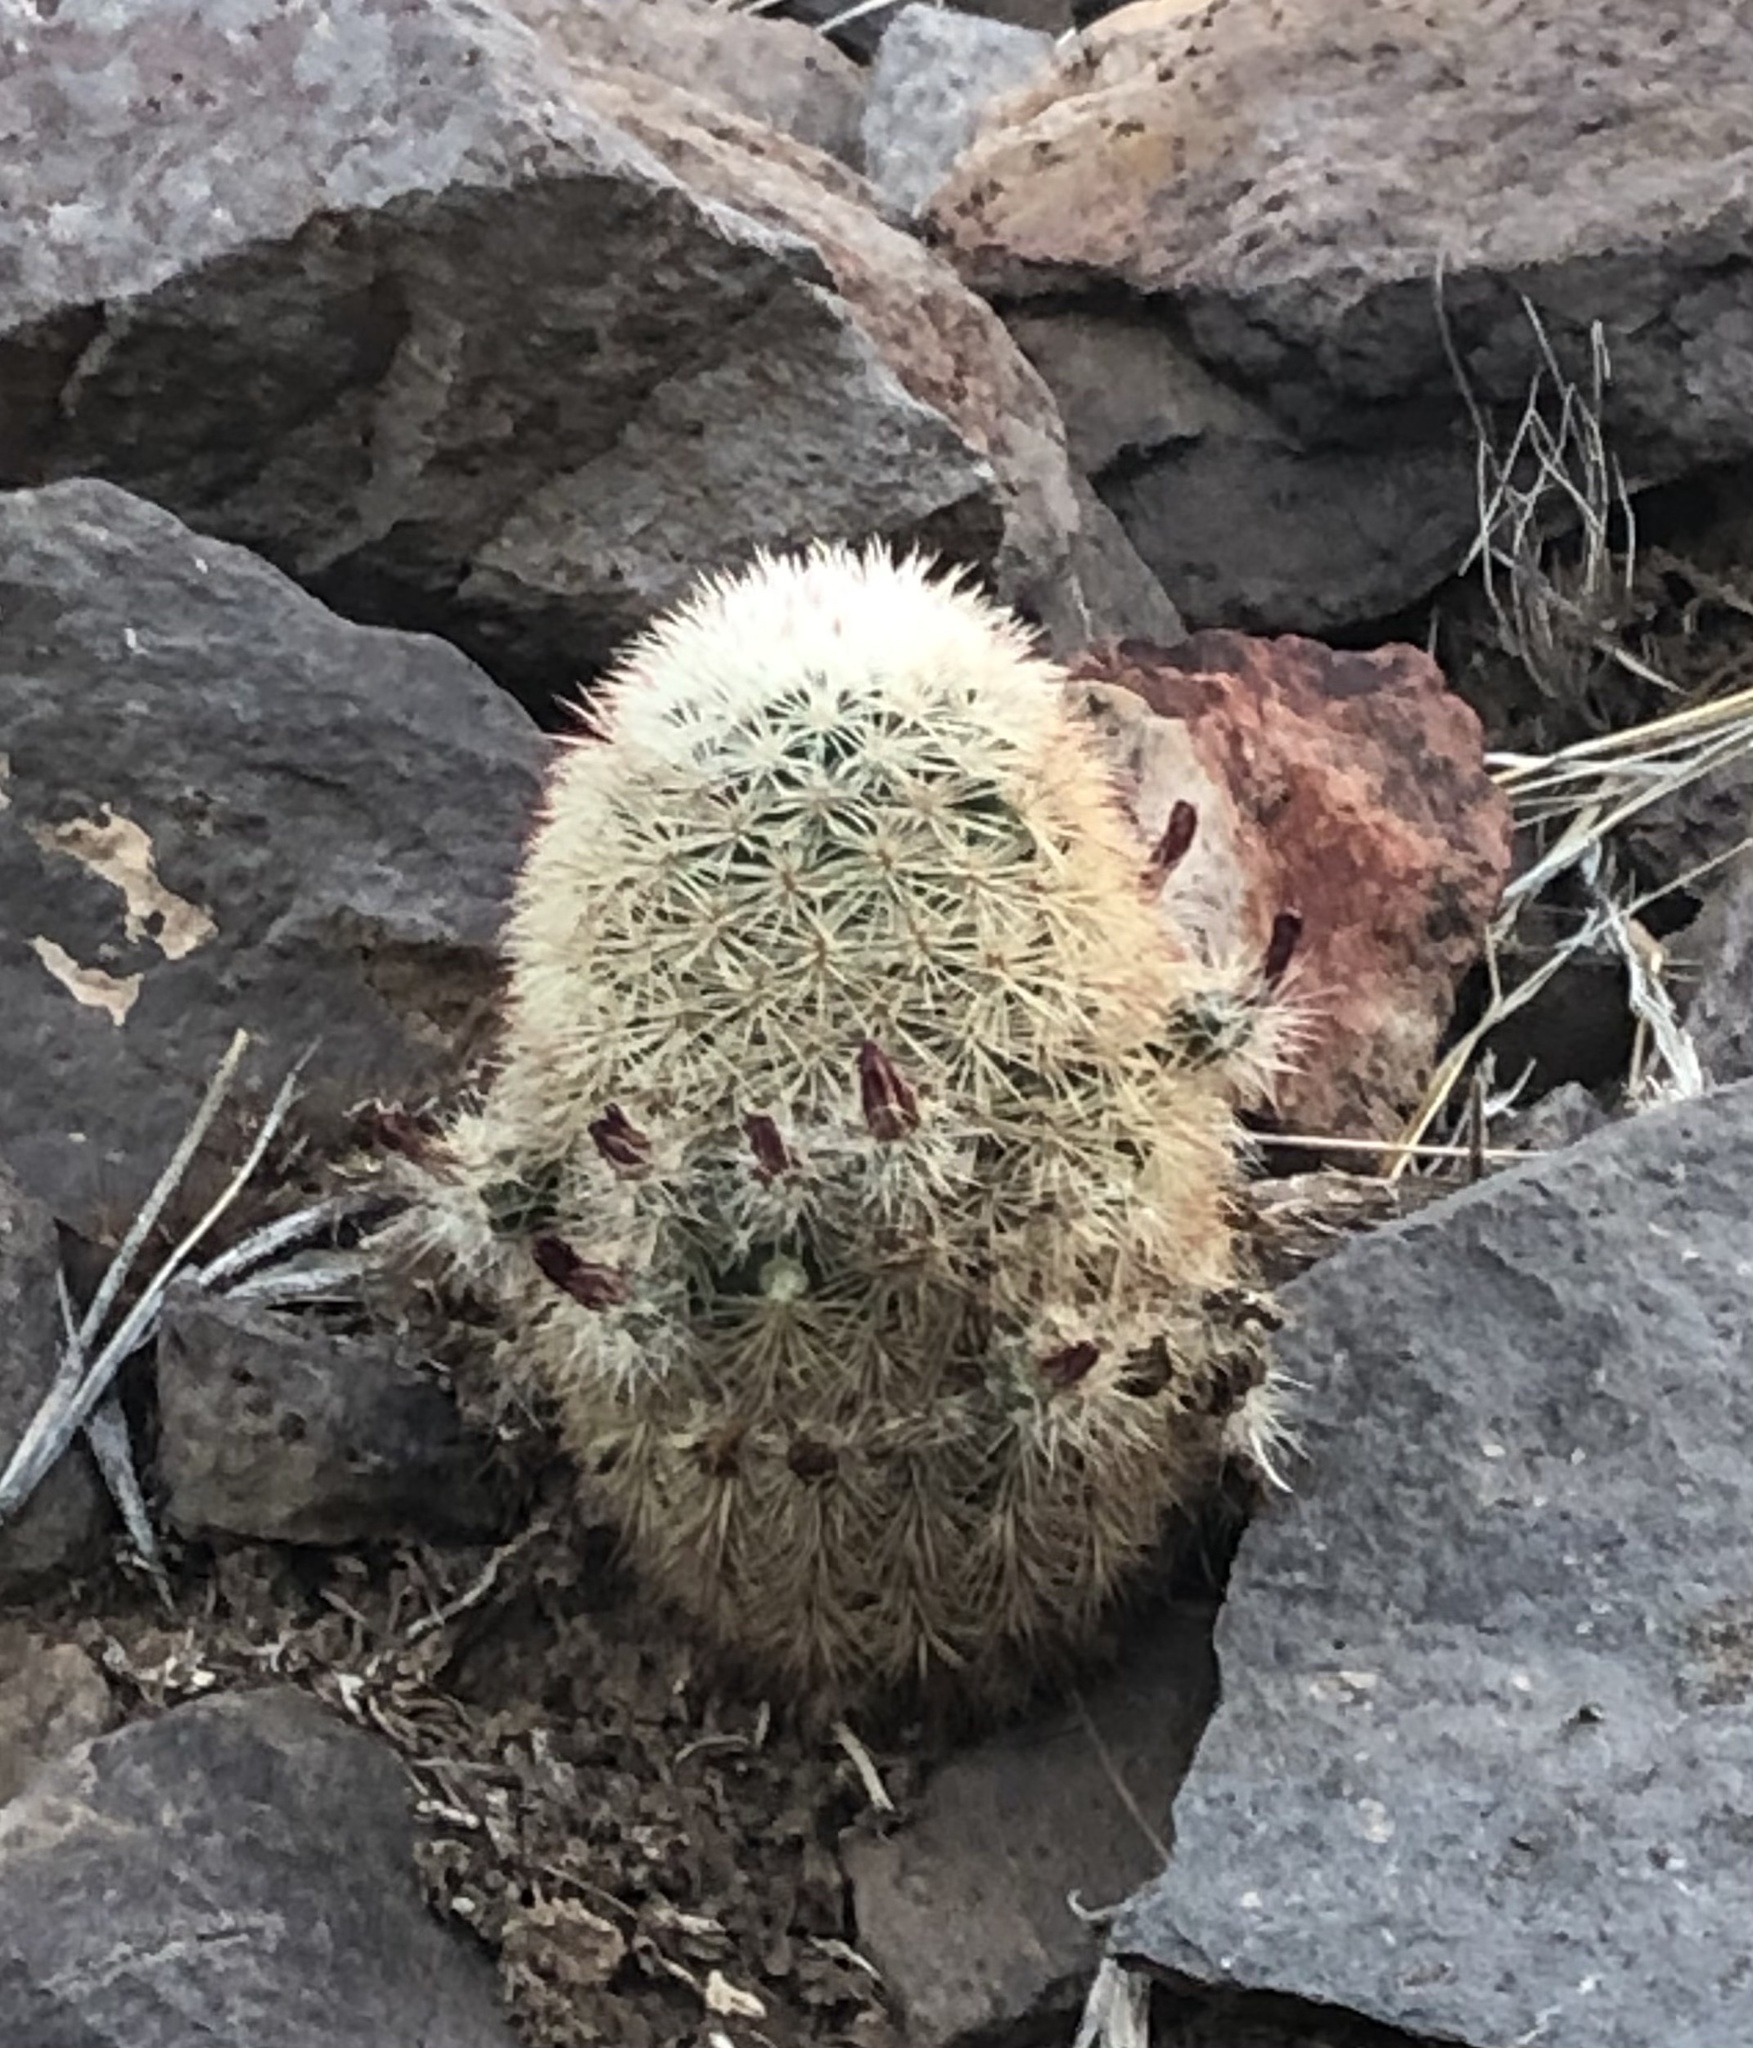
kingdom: Plantae
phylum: Tracheophyta
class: Magnoliopsida
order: Caryophyllales
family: Cactaceae
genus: Echinocereus
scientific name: Echinocereus russanthus
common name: Brownspine hedgehog cactus
